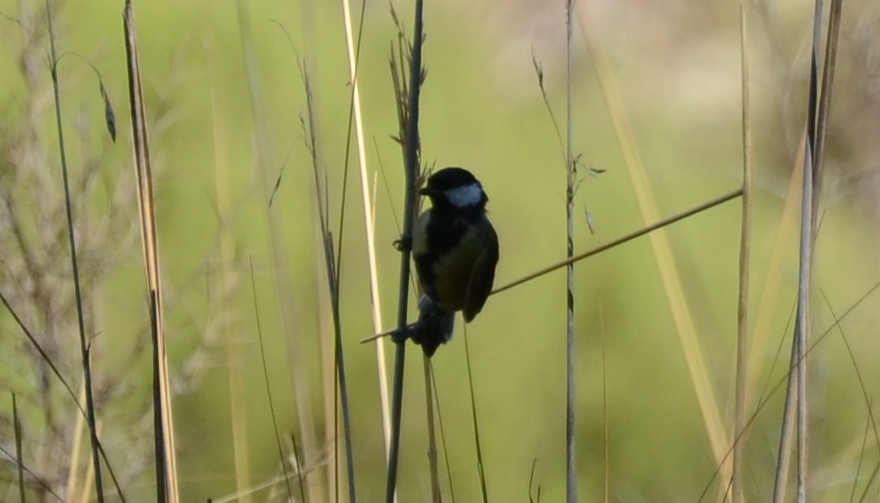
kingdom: Animalia
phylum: Chordata
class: Aves
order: Passeriformes
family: Paridae
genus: Parus
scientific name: Parus major
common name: Great tit
